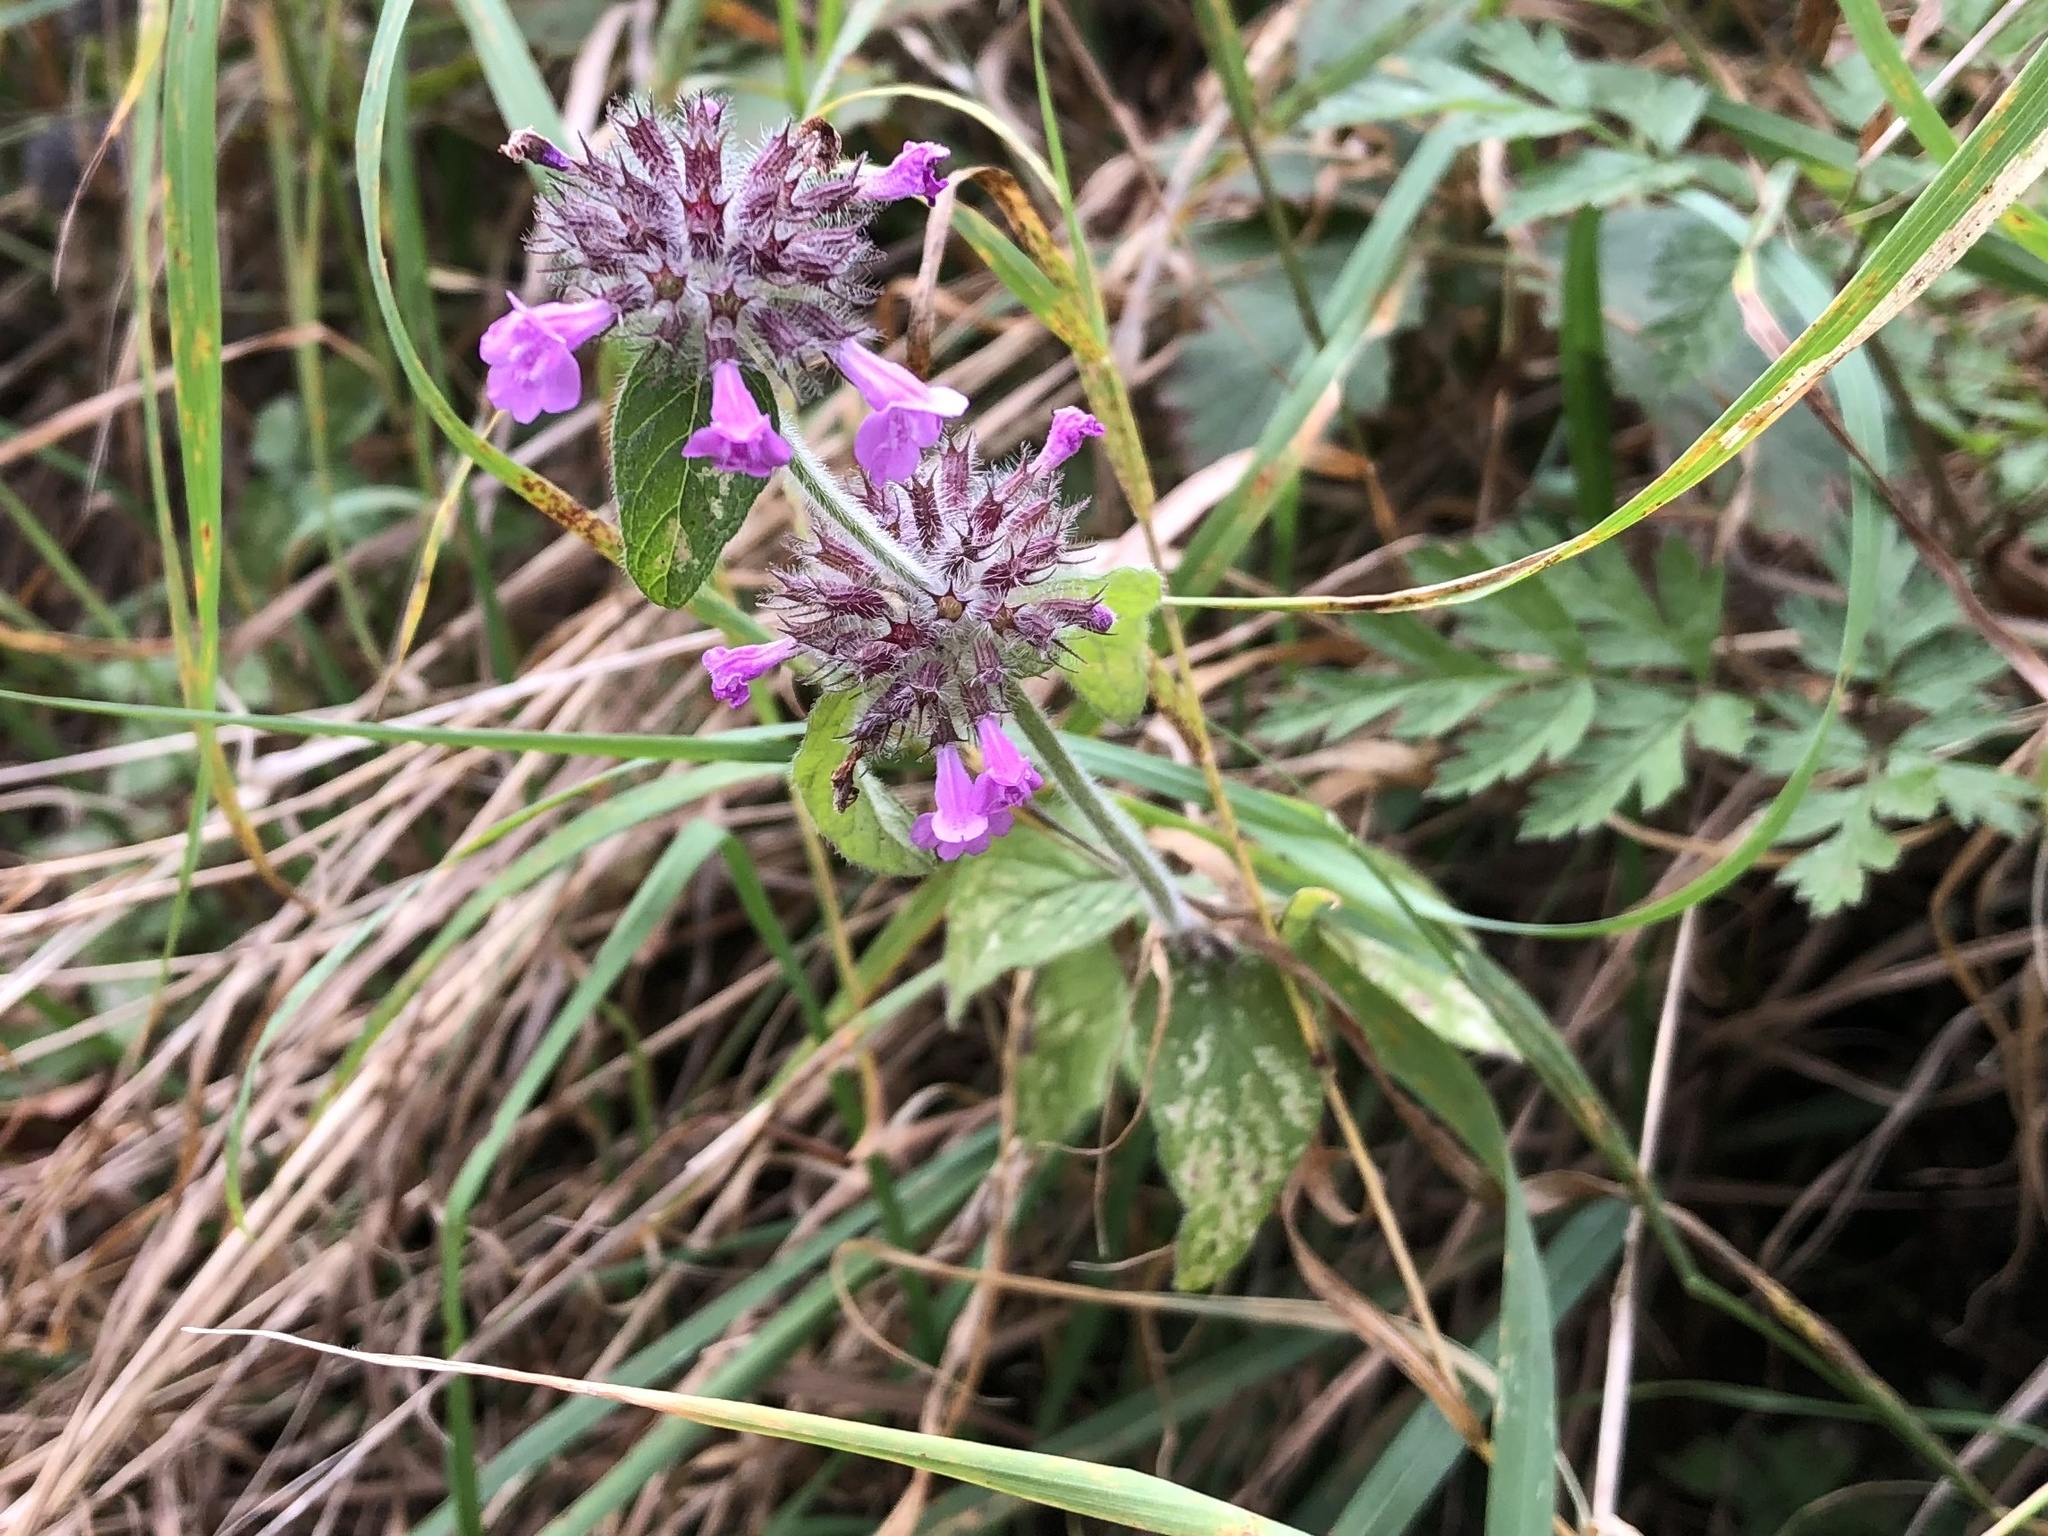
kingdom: Plantae
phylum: Tracheophyta
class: Magnoliopsida
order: Lamiales
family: Lamiaceae
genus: Clinopodium
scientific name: Clinopodium vulgare
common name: Wild basil
